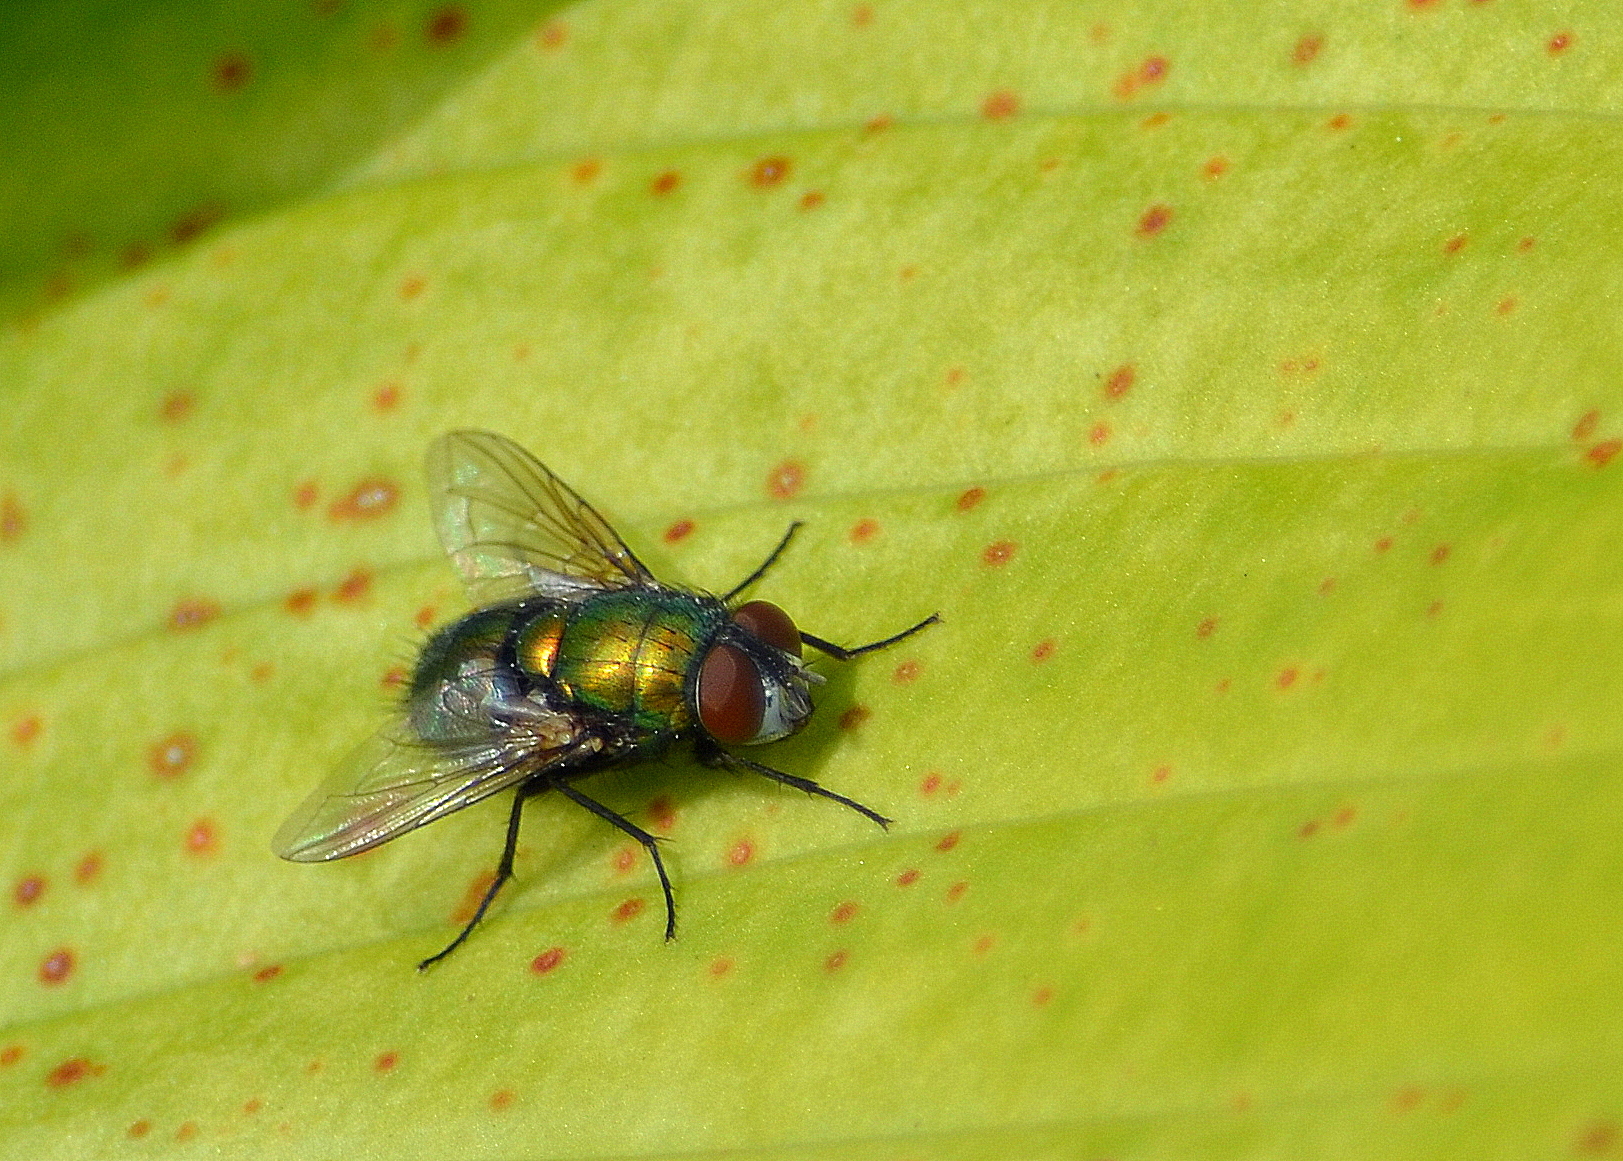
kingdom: Animalia
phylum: Arthropoda
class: Insecta
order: Diptera
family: Calliphoridae
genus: Lucilia
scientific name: Lucilia sericata
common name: Blow fly
